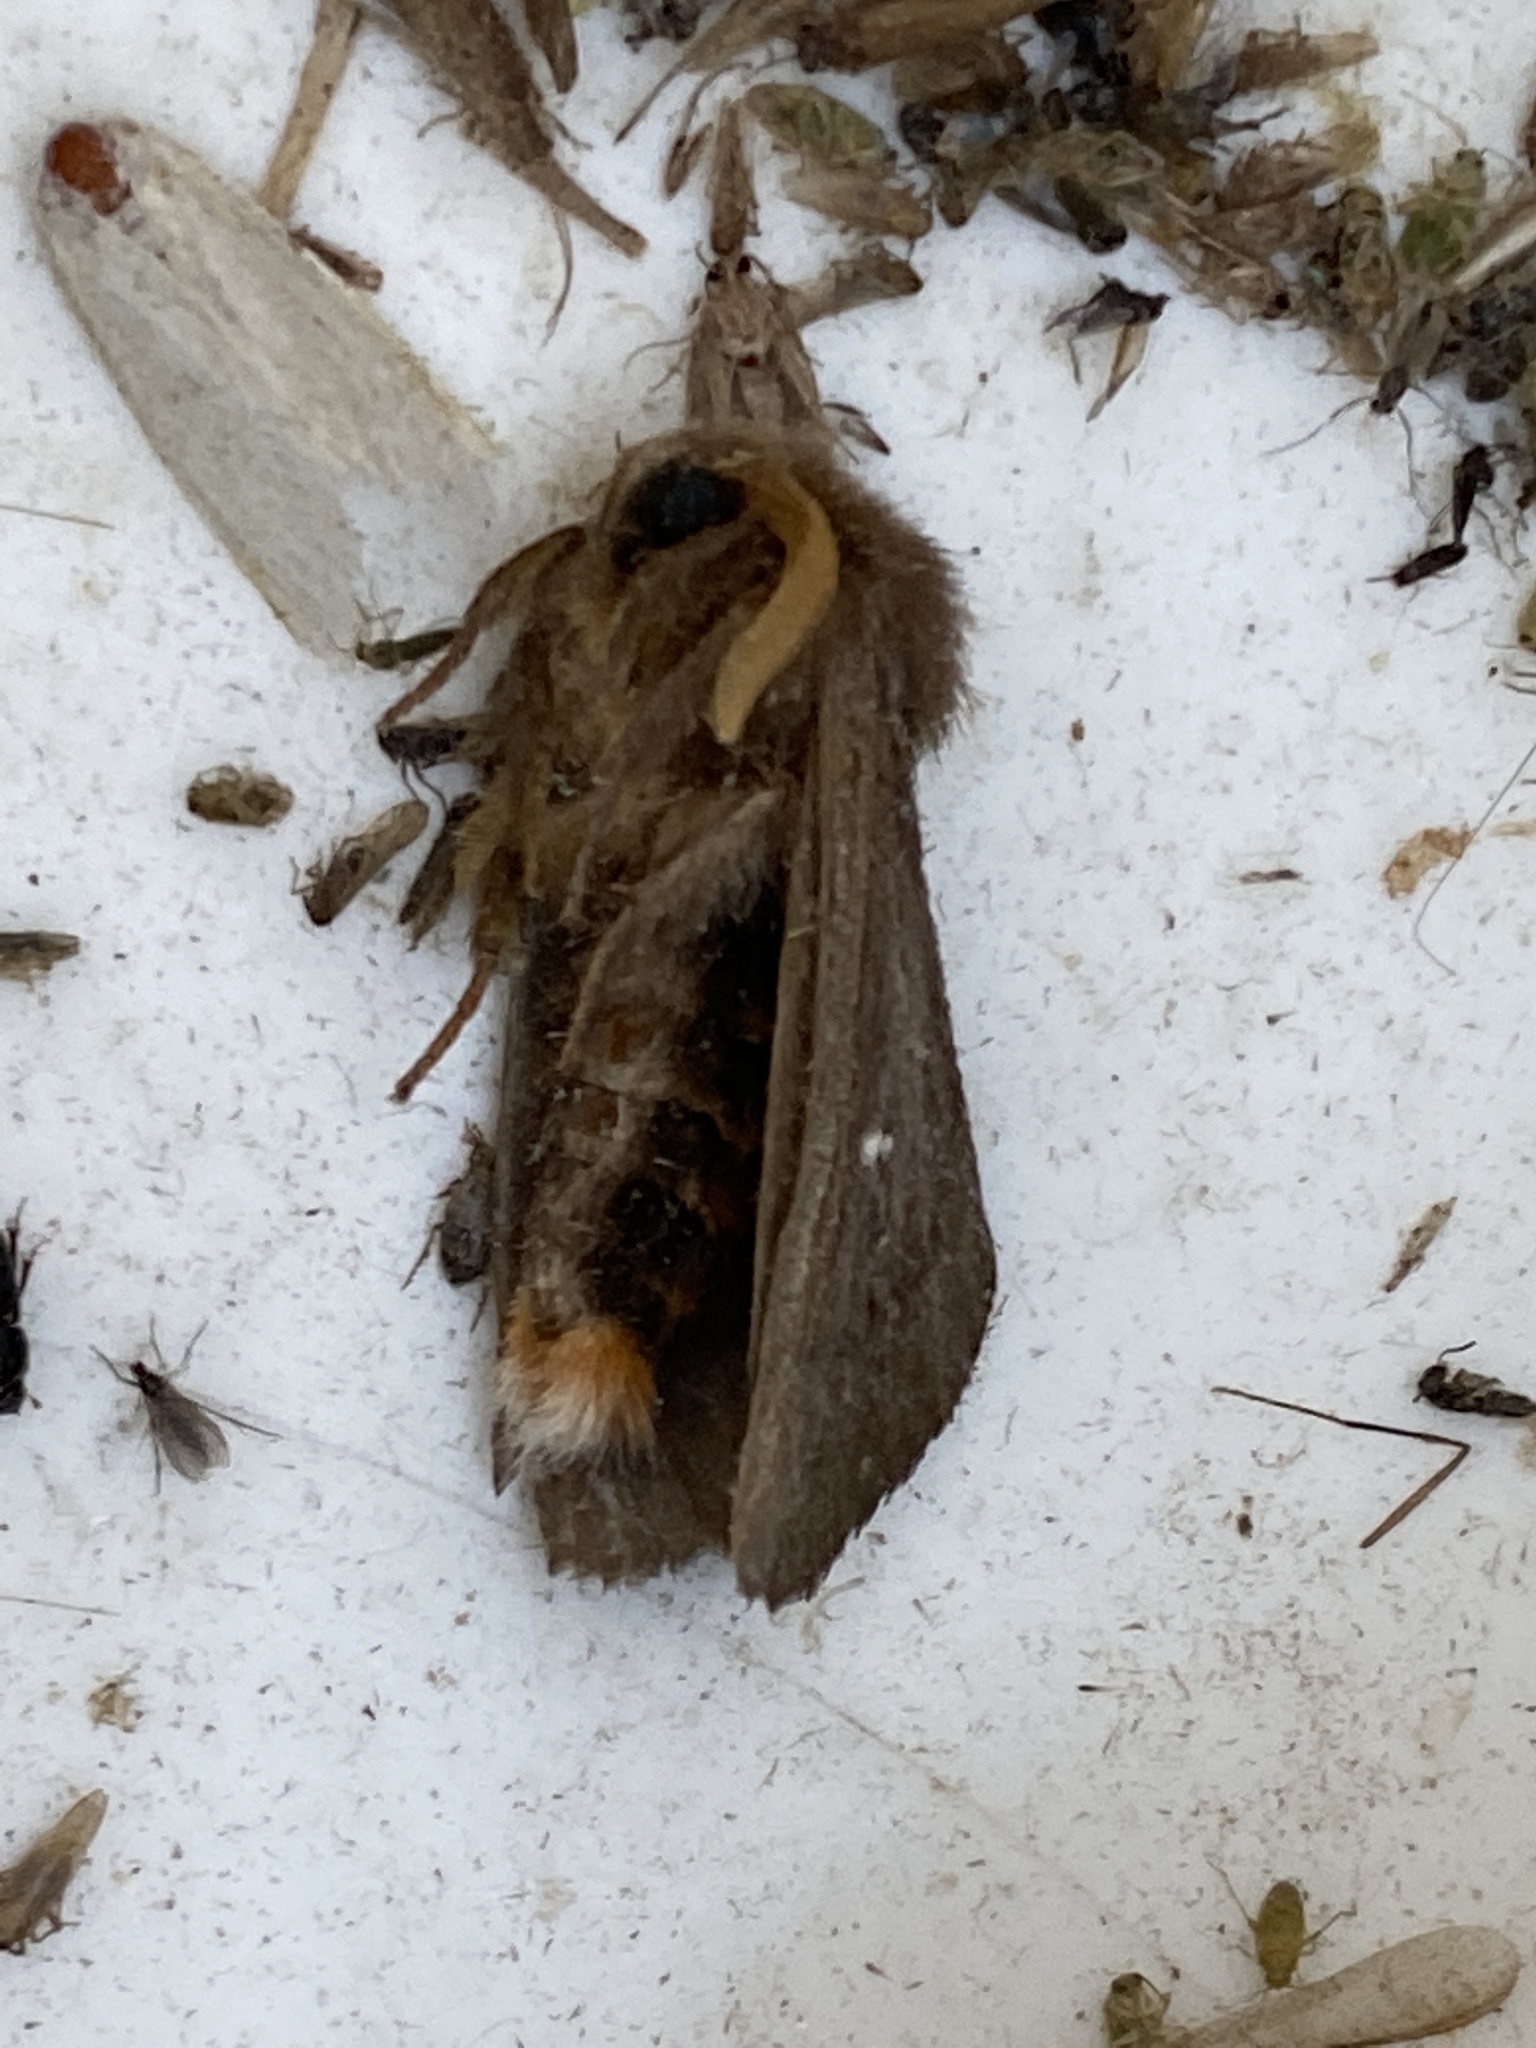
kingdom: Animalia
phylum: Arthropoda
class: Insecta
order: Lepidoptera
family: Notodontidae
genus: Ochrogaster
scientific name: Ochrogaster lunifer
